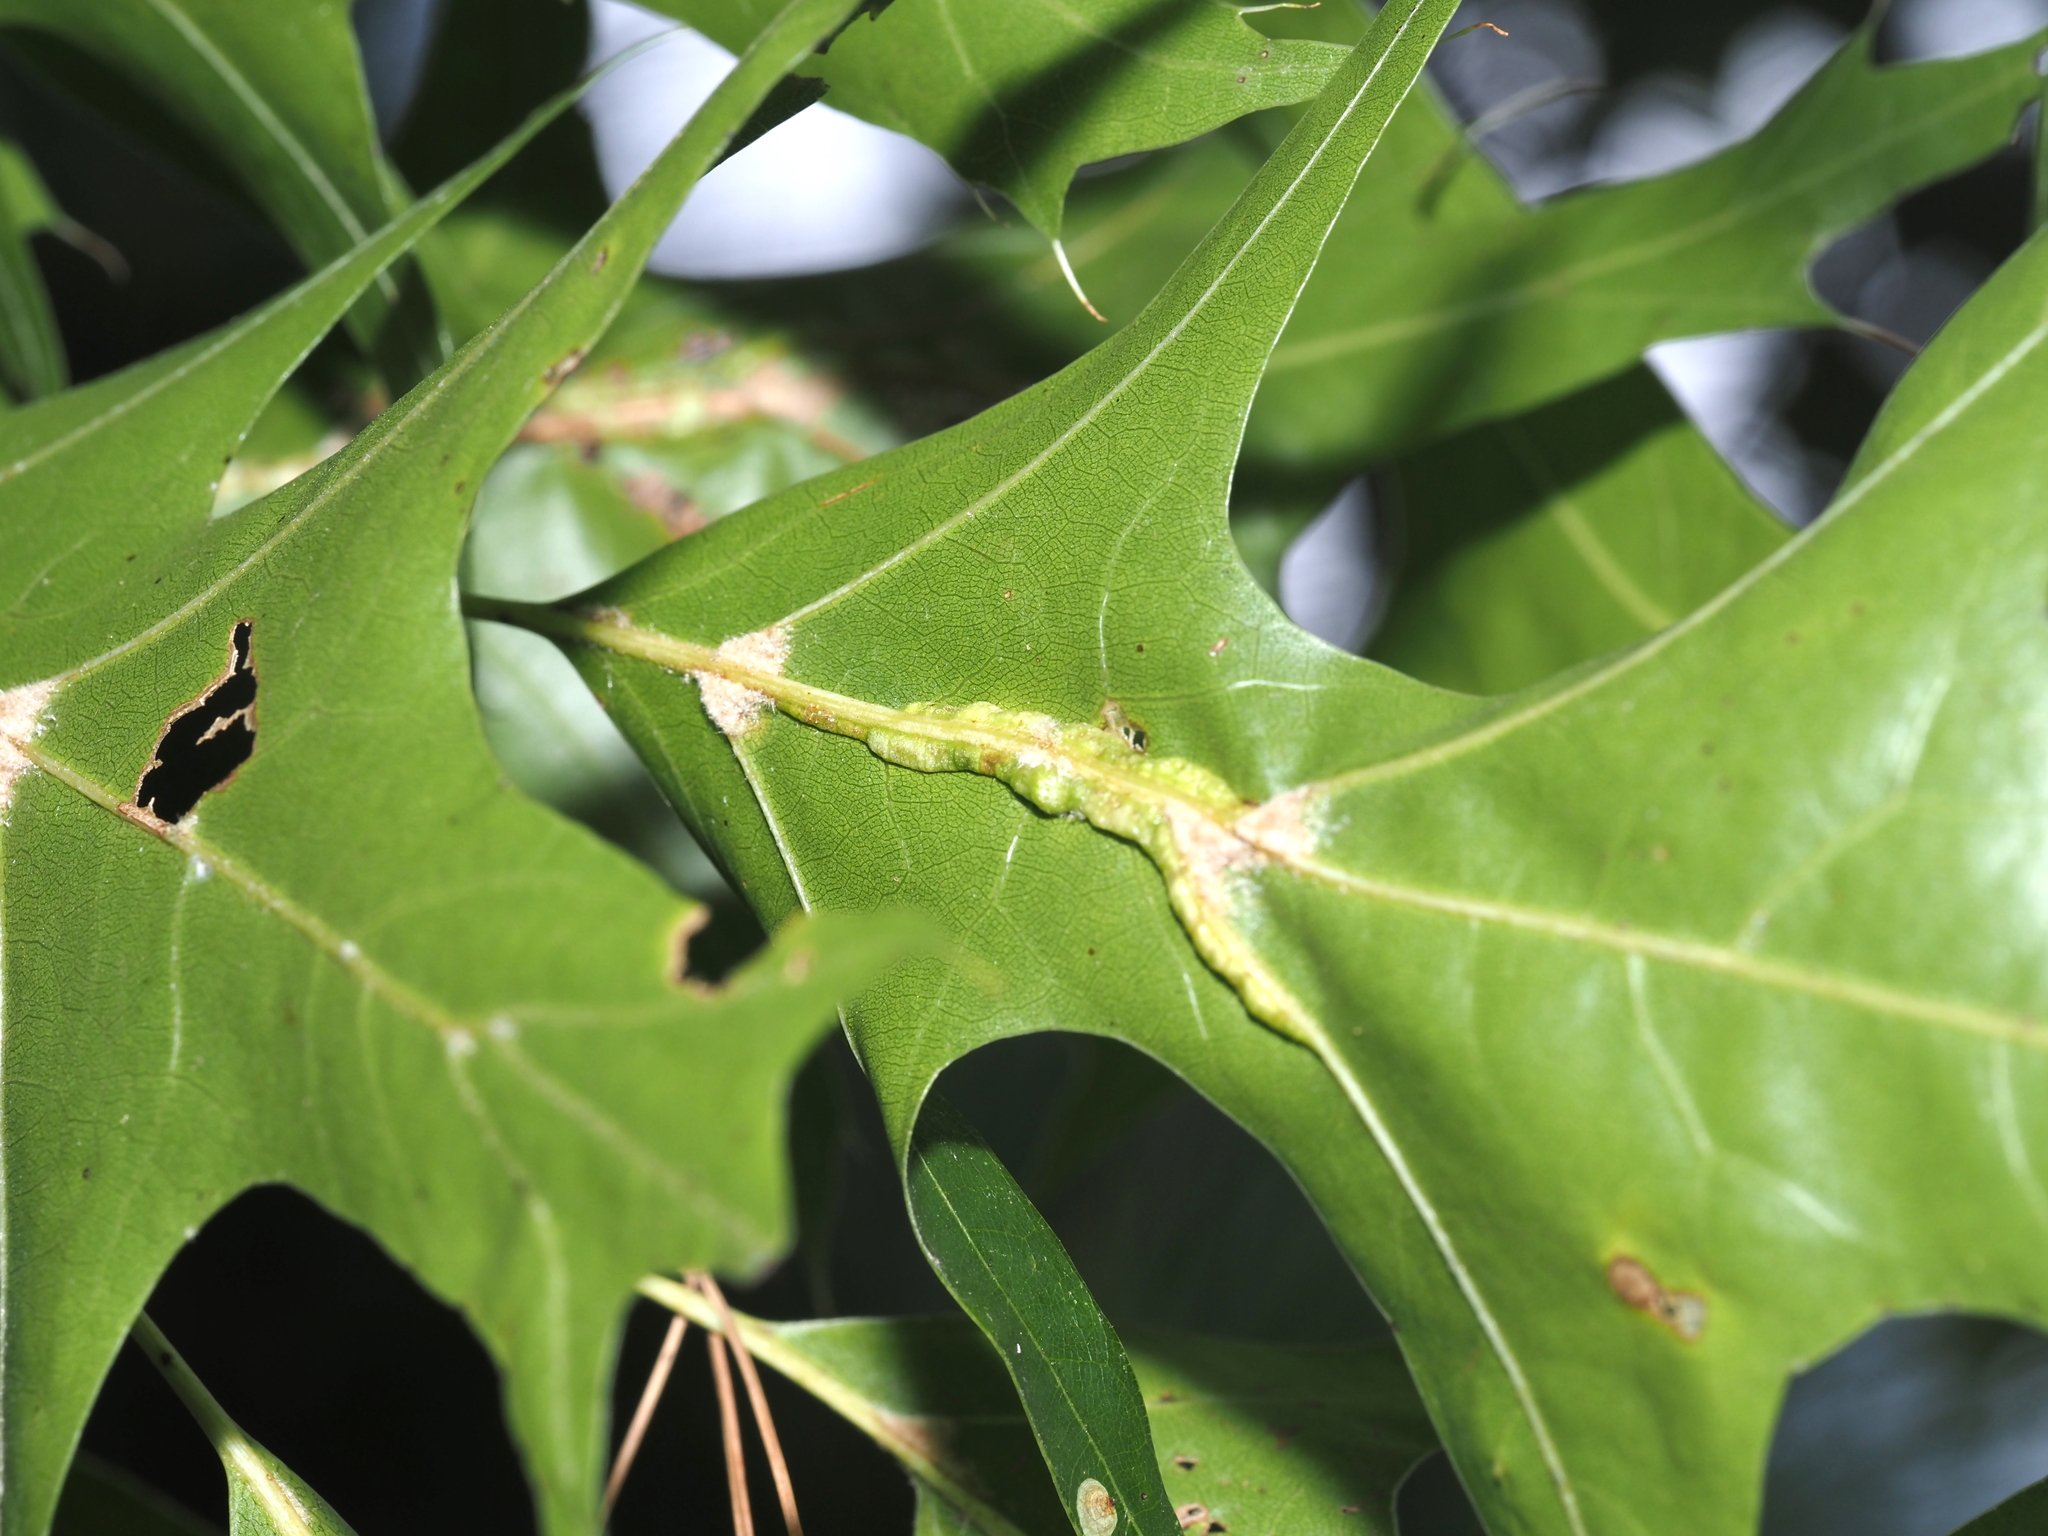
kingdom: Animalia
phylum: Arthropoda
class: Insecta
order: Diptera
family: Cecidomyiidae
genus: Macrodiplosis
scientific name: Macrodiplosis q-orucum
